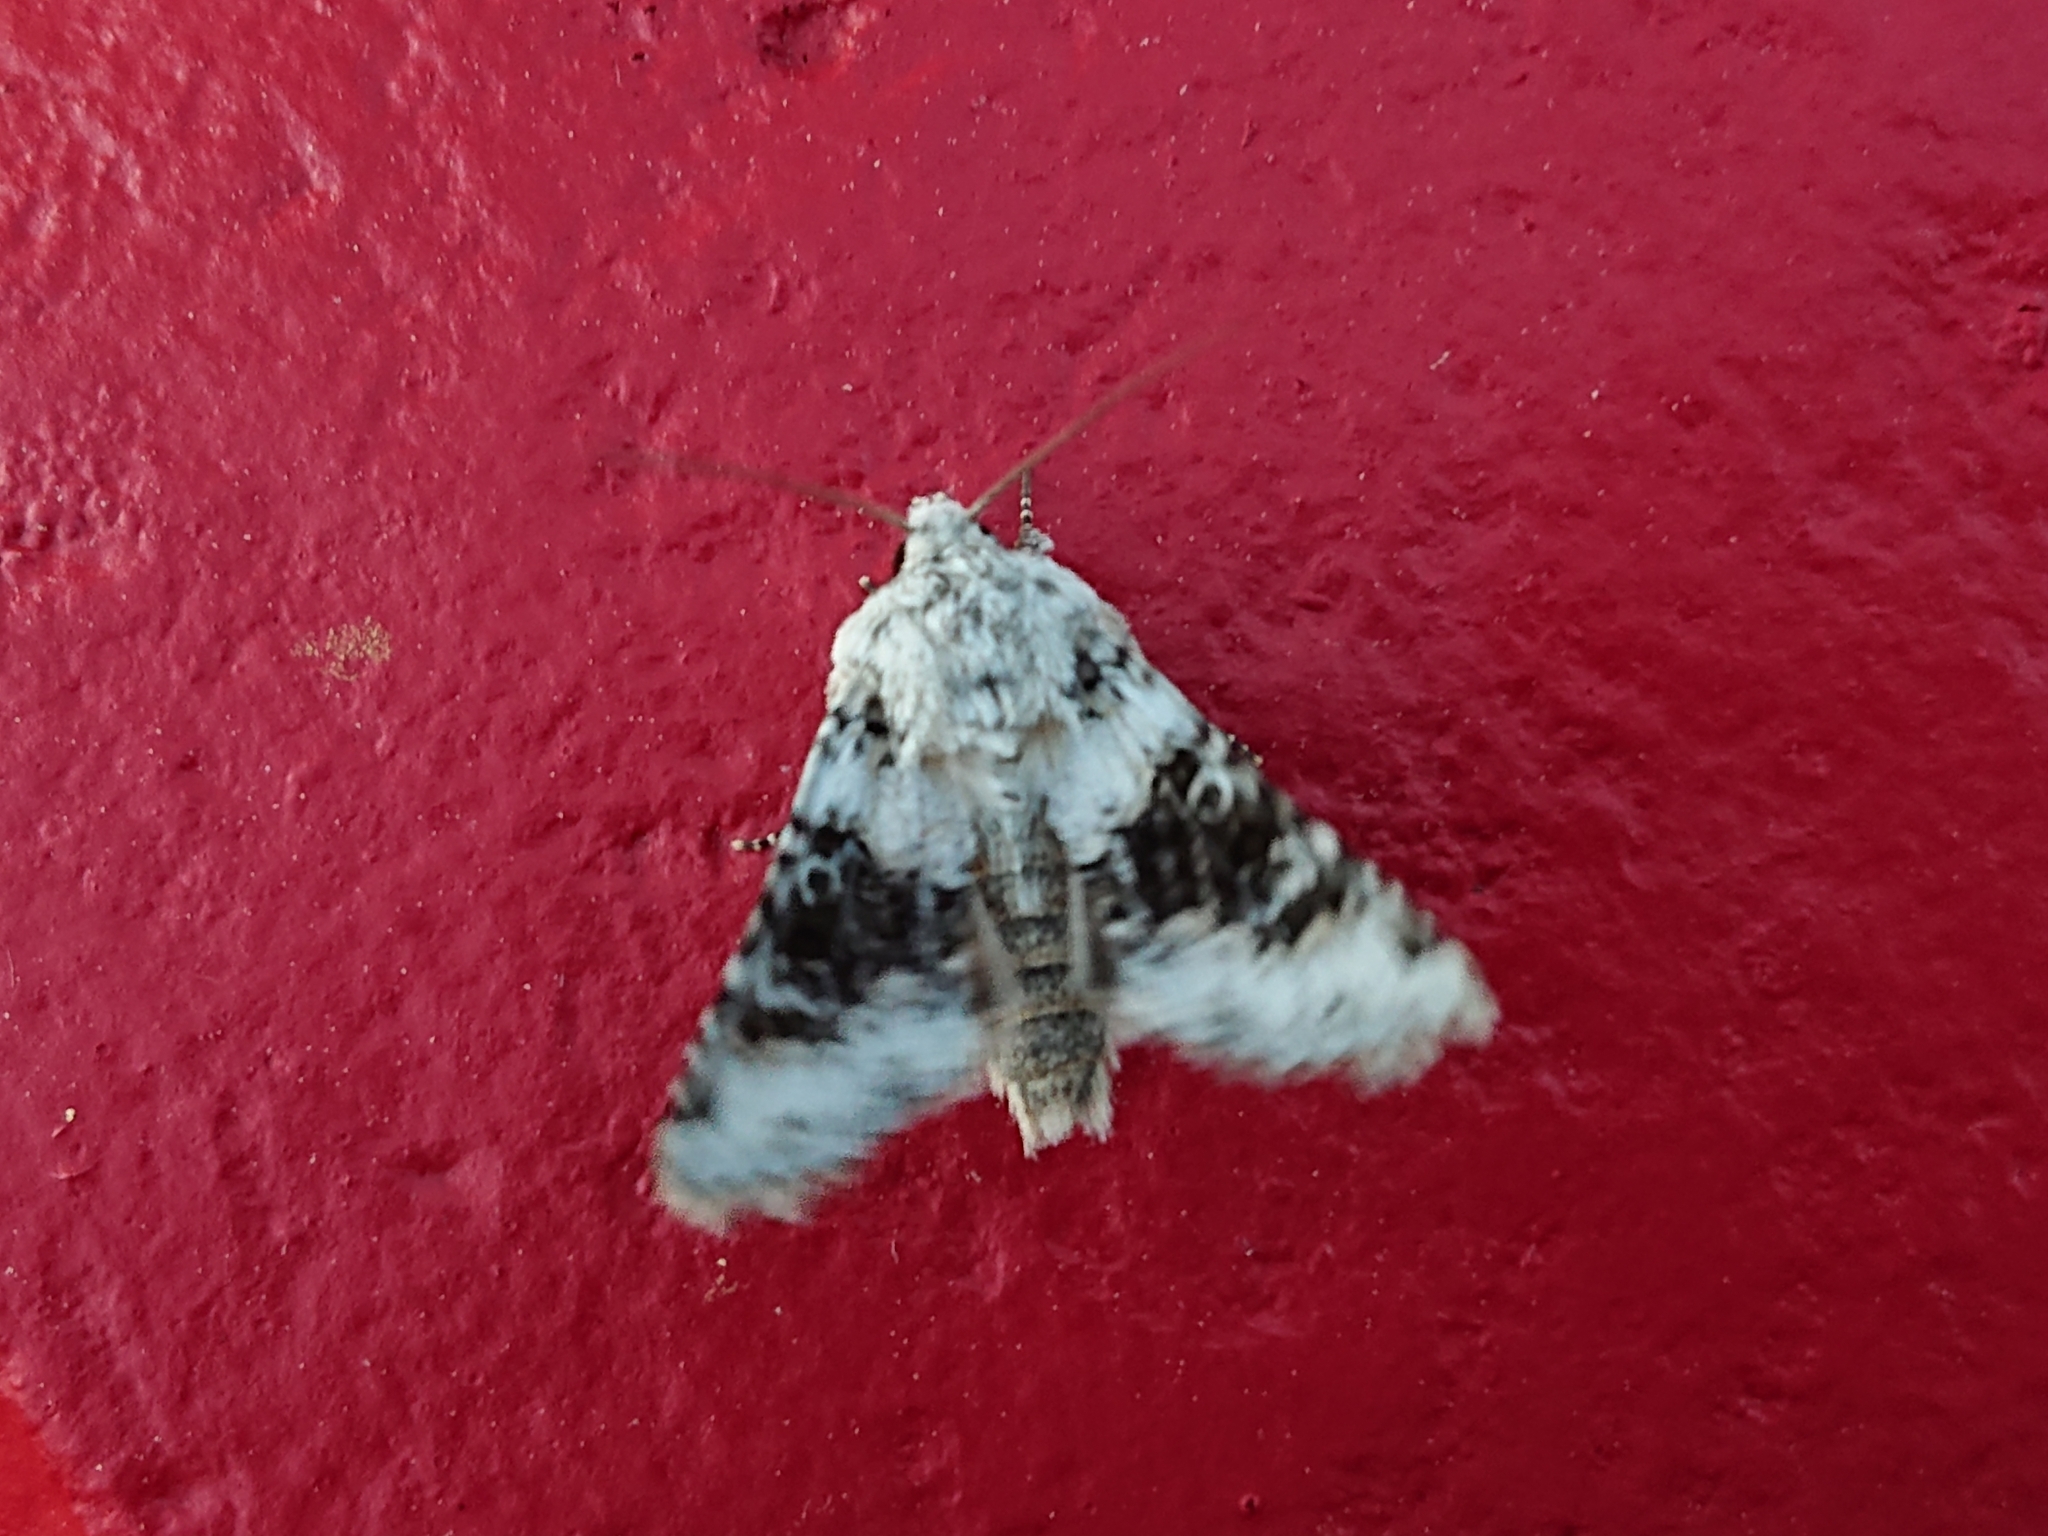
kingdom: Animalia
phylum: Arthropoda
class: Insecta
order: Lepidoptera
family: Noctuidae
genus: Hecatera
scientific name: Hecatera bicolorata
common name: Broad-barred white
